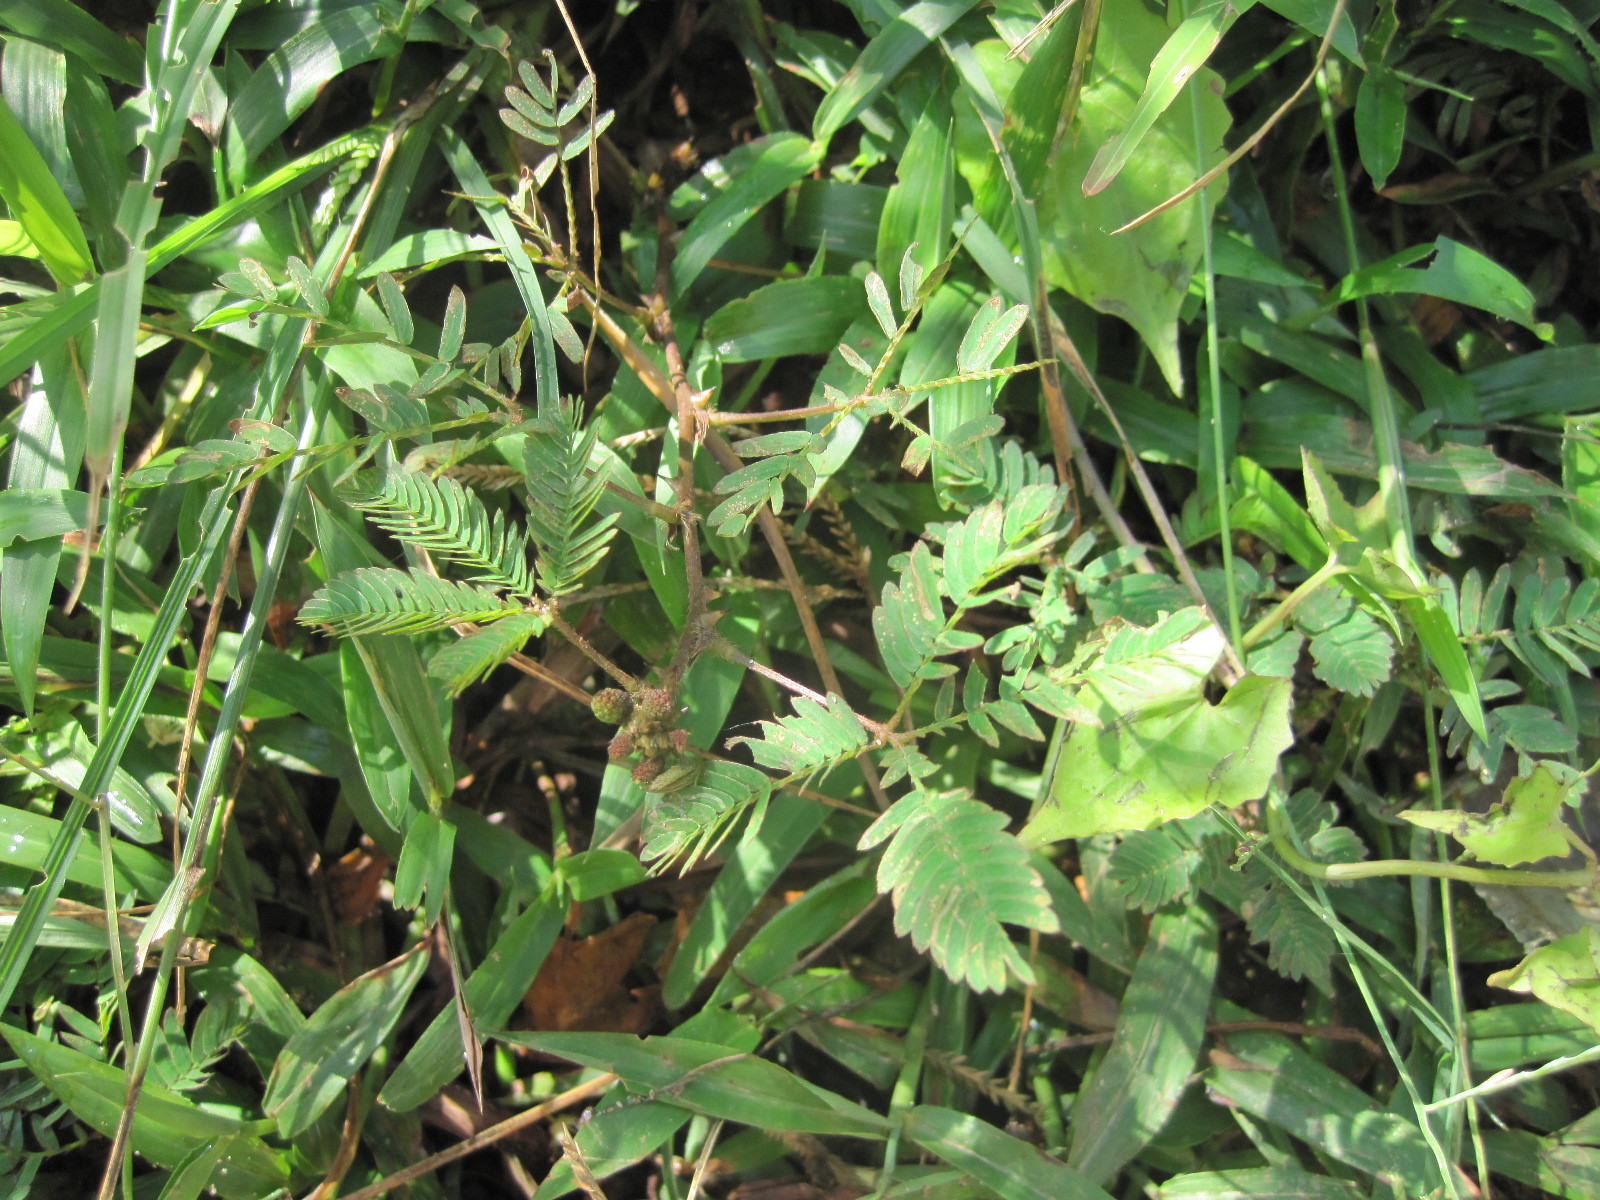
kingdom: Plantae
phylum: Tracheophyta
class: Magnoliopsida
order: Fabales
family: Fabaceae
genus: Mimosa
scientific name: Mimosa pudica
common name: Sensitive plant
